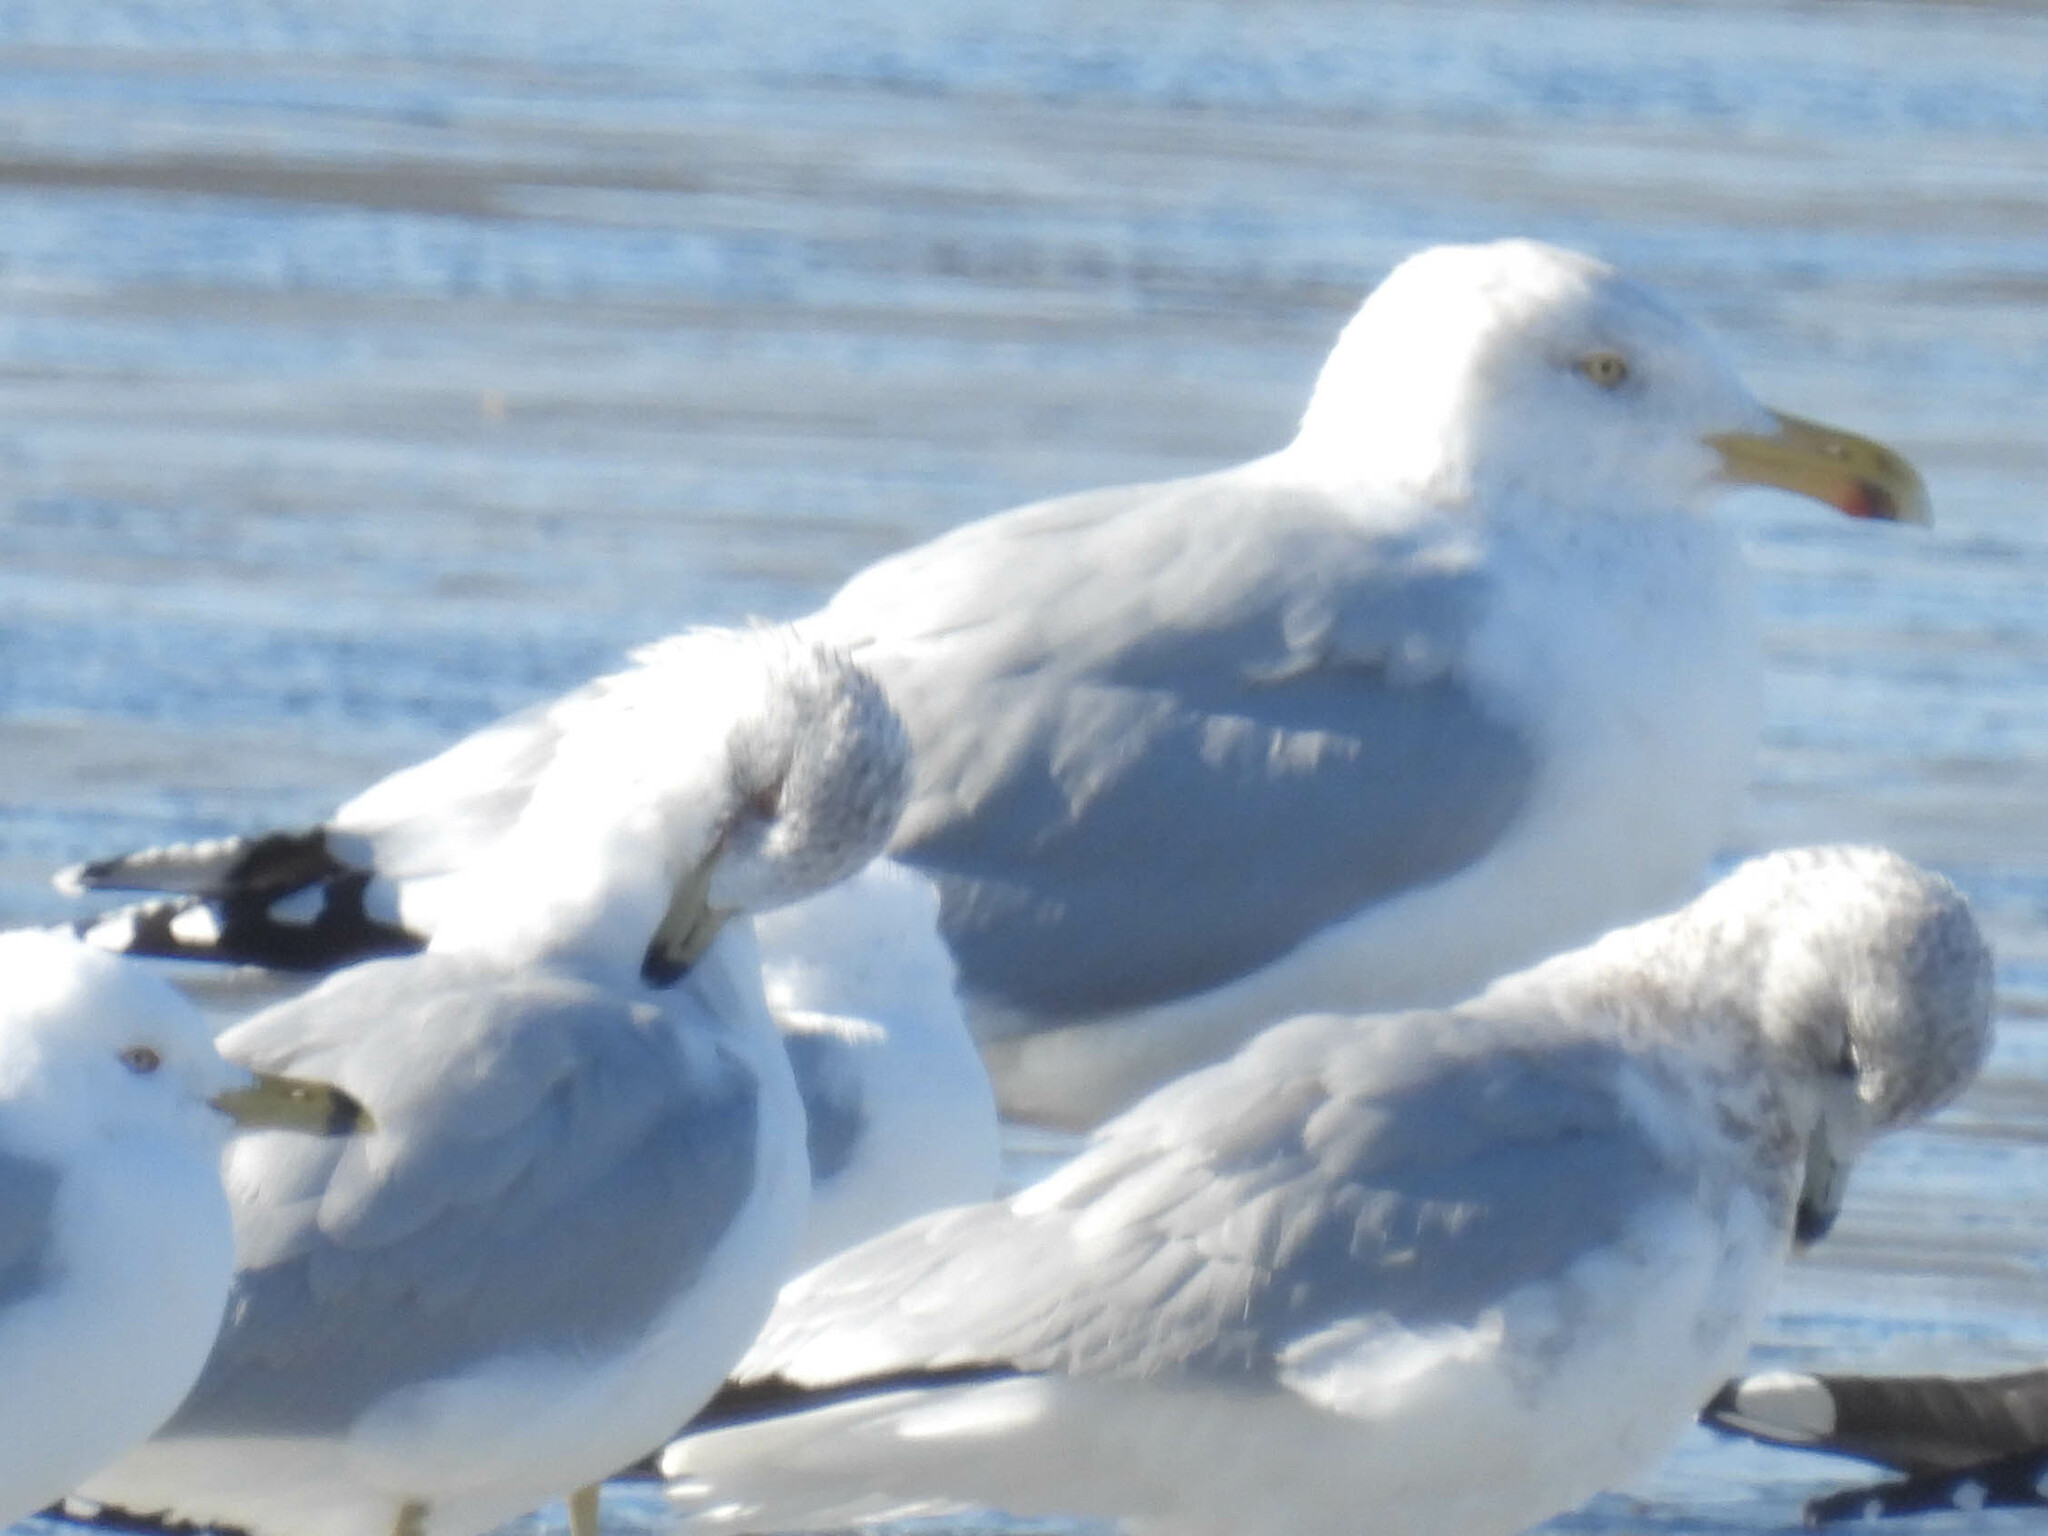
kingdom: Animalia
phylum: Chordata
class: Aves
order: Charadriiformes
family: Laridae
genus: Larus
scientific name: Larus argentatus
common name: Herring gull
